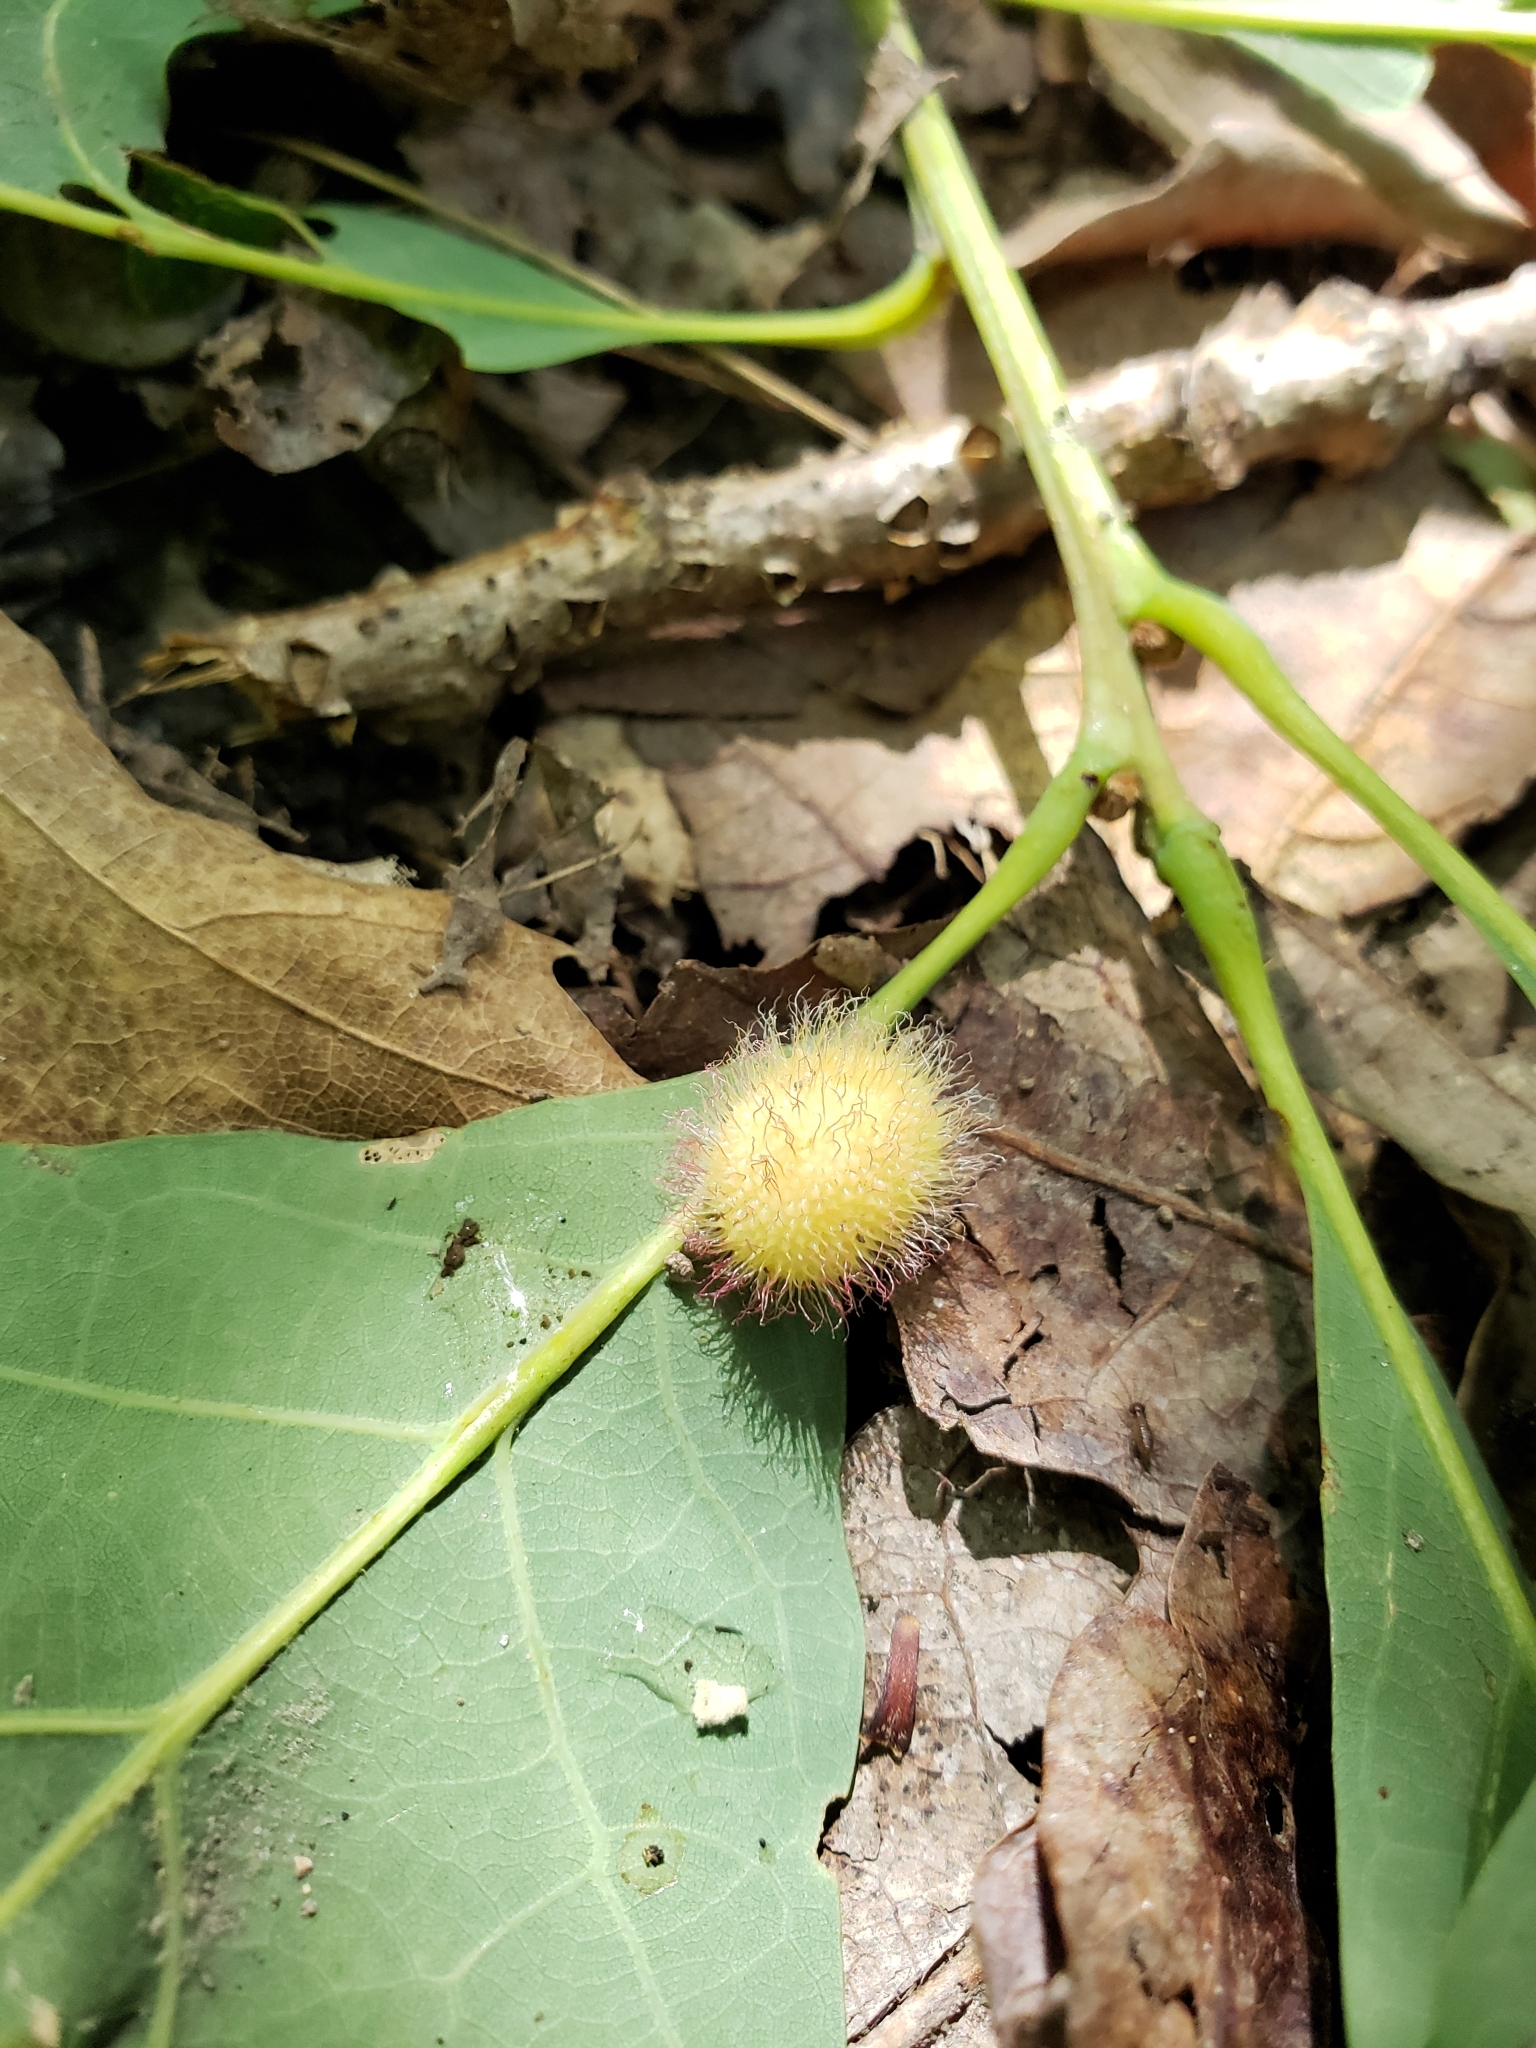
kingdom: Animalia
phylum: Arthropoda
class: Insecta
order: Hymenoptera
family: Cynipidae
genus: Acraspis
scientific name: Acraspis erinacei
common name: Hedgehog gall wasp
